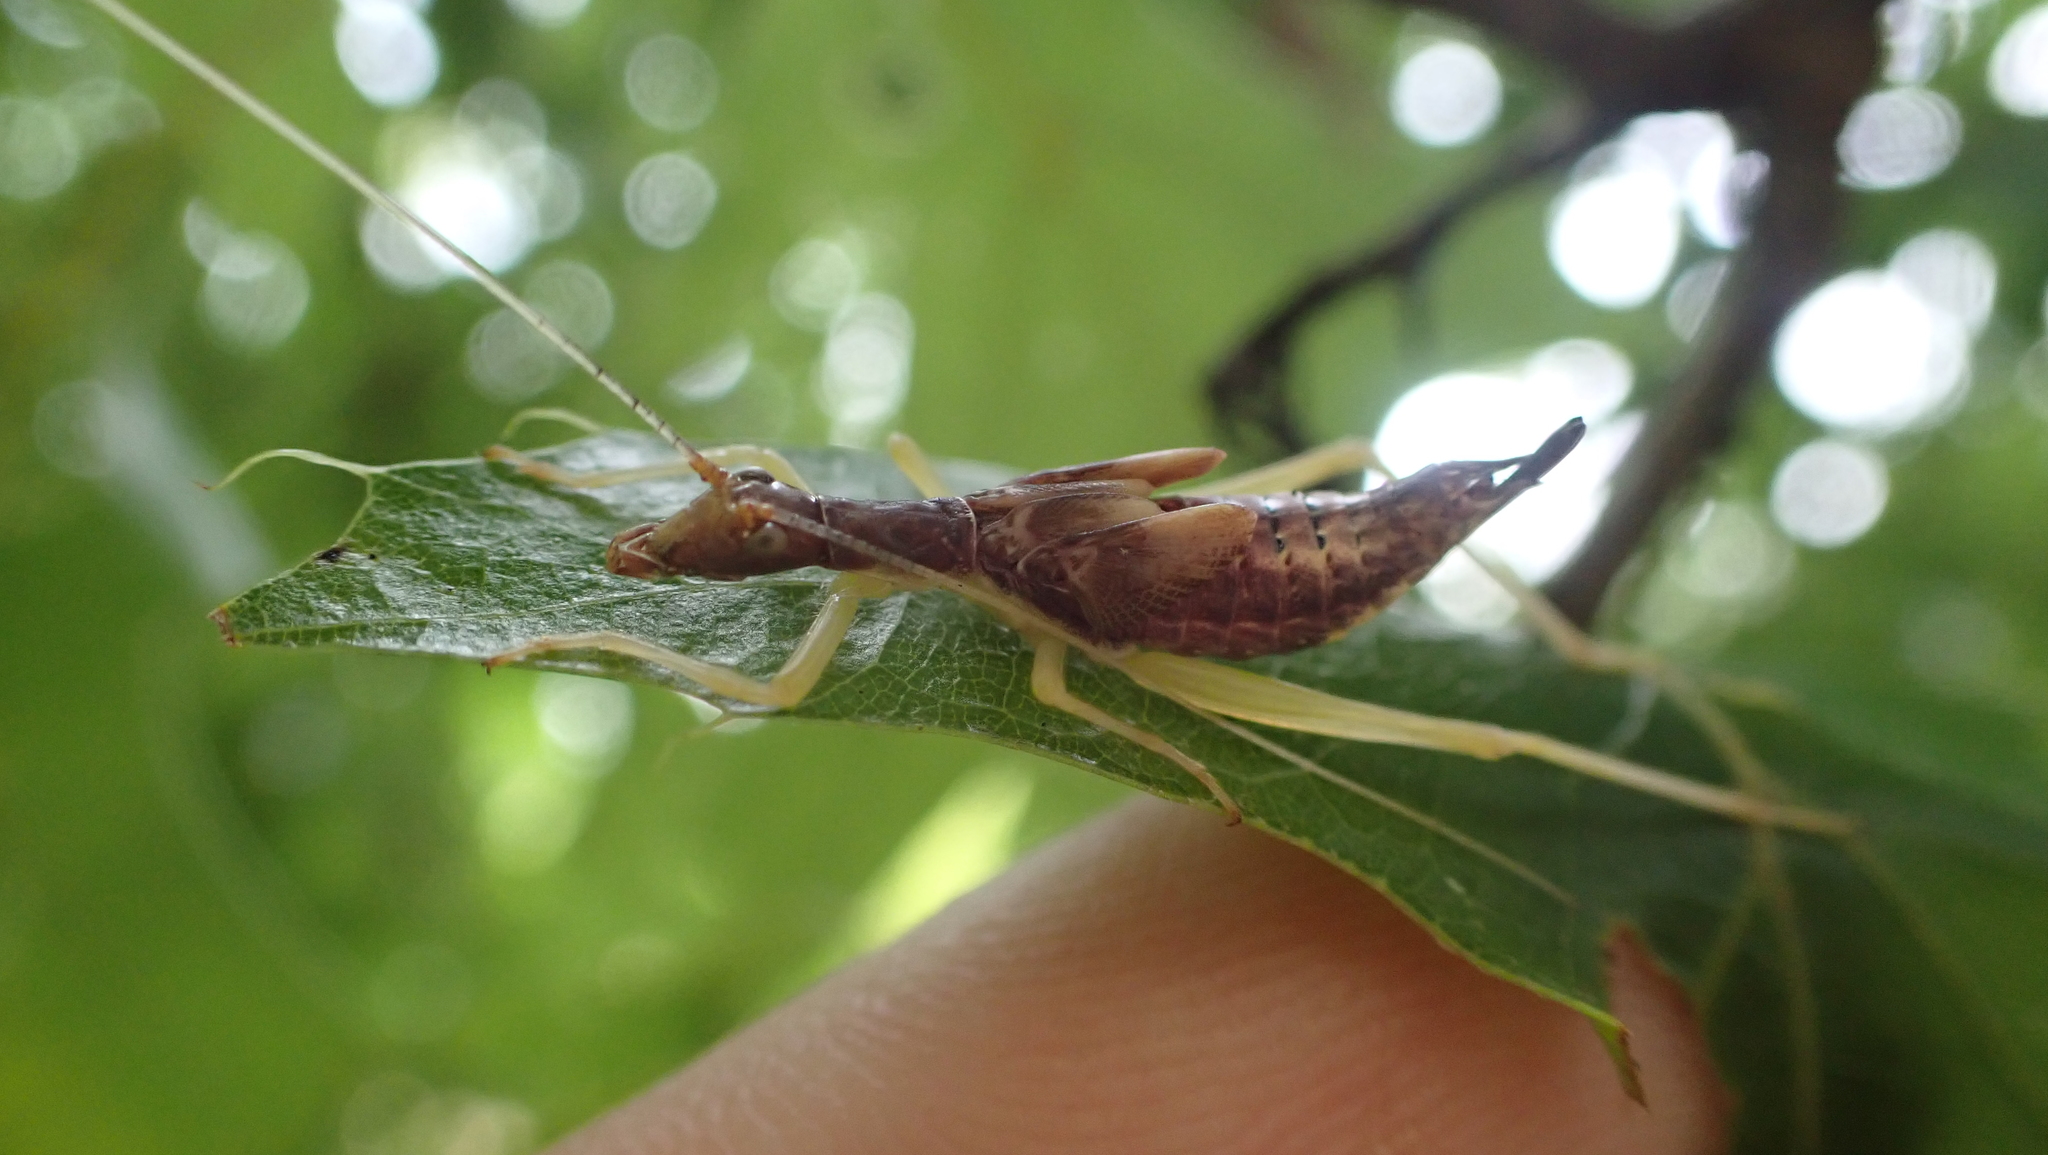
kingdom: Animalia
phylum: Arthropoda
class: Insecta
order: Orthoptera
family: Gryllidae
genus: Neoxabea
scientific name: Neoxabea bipunctata
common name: Two-spotted tree cricket
